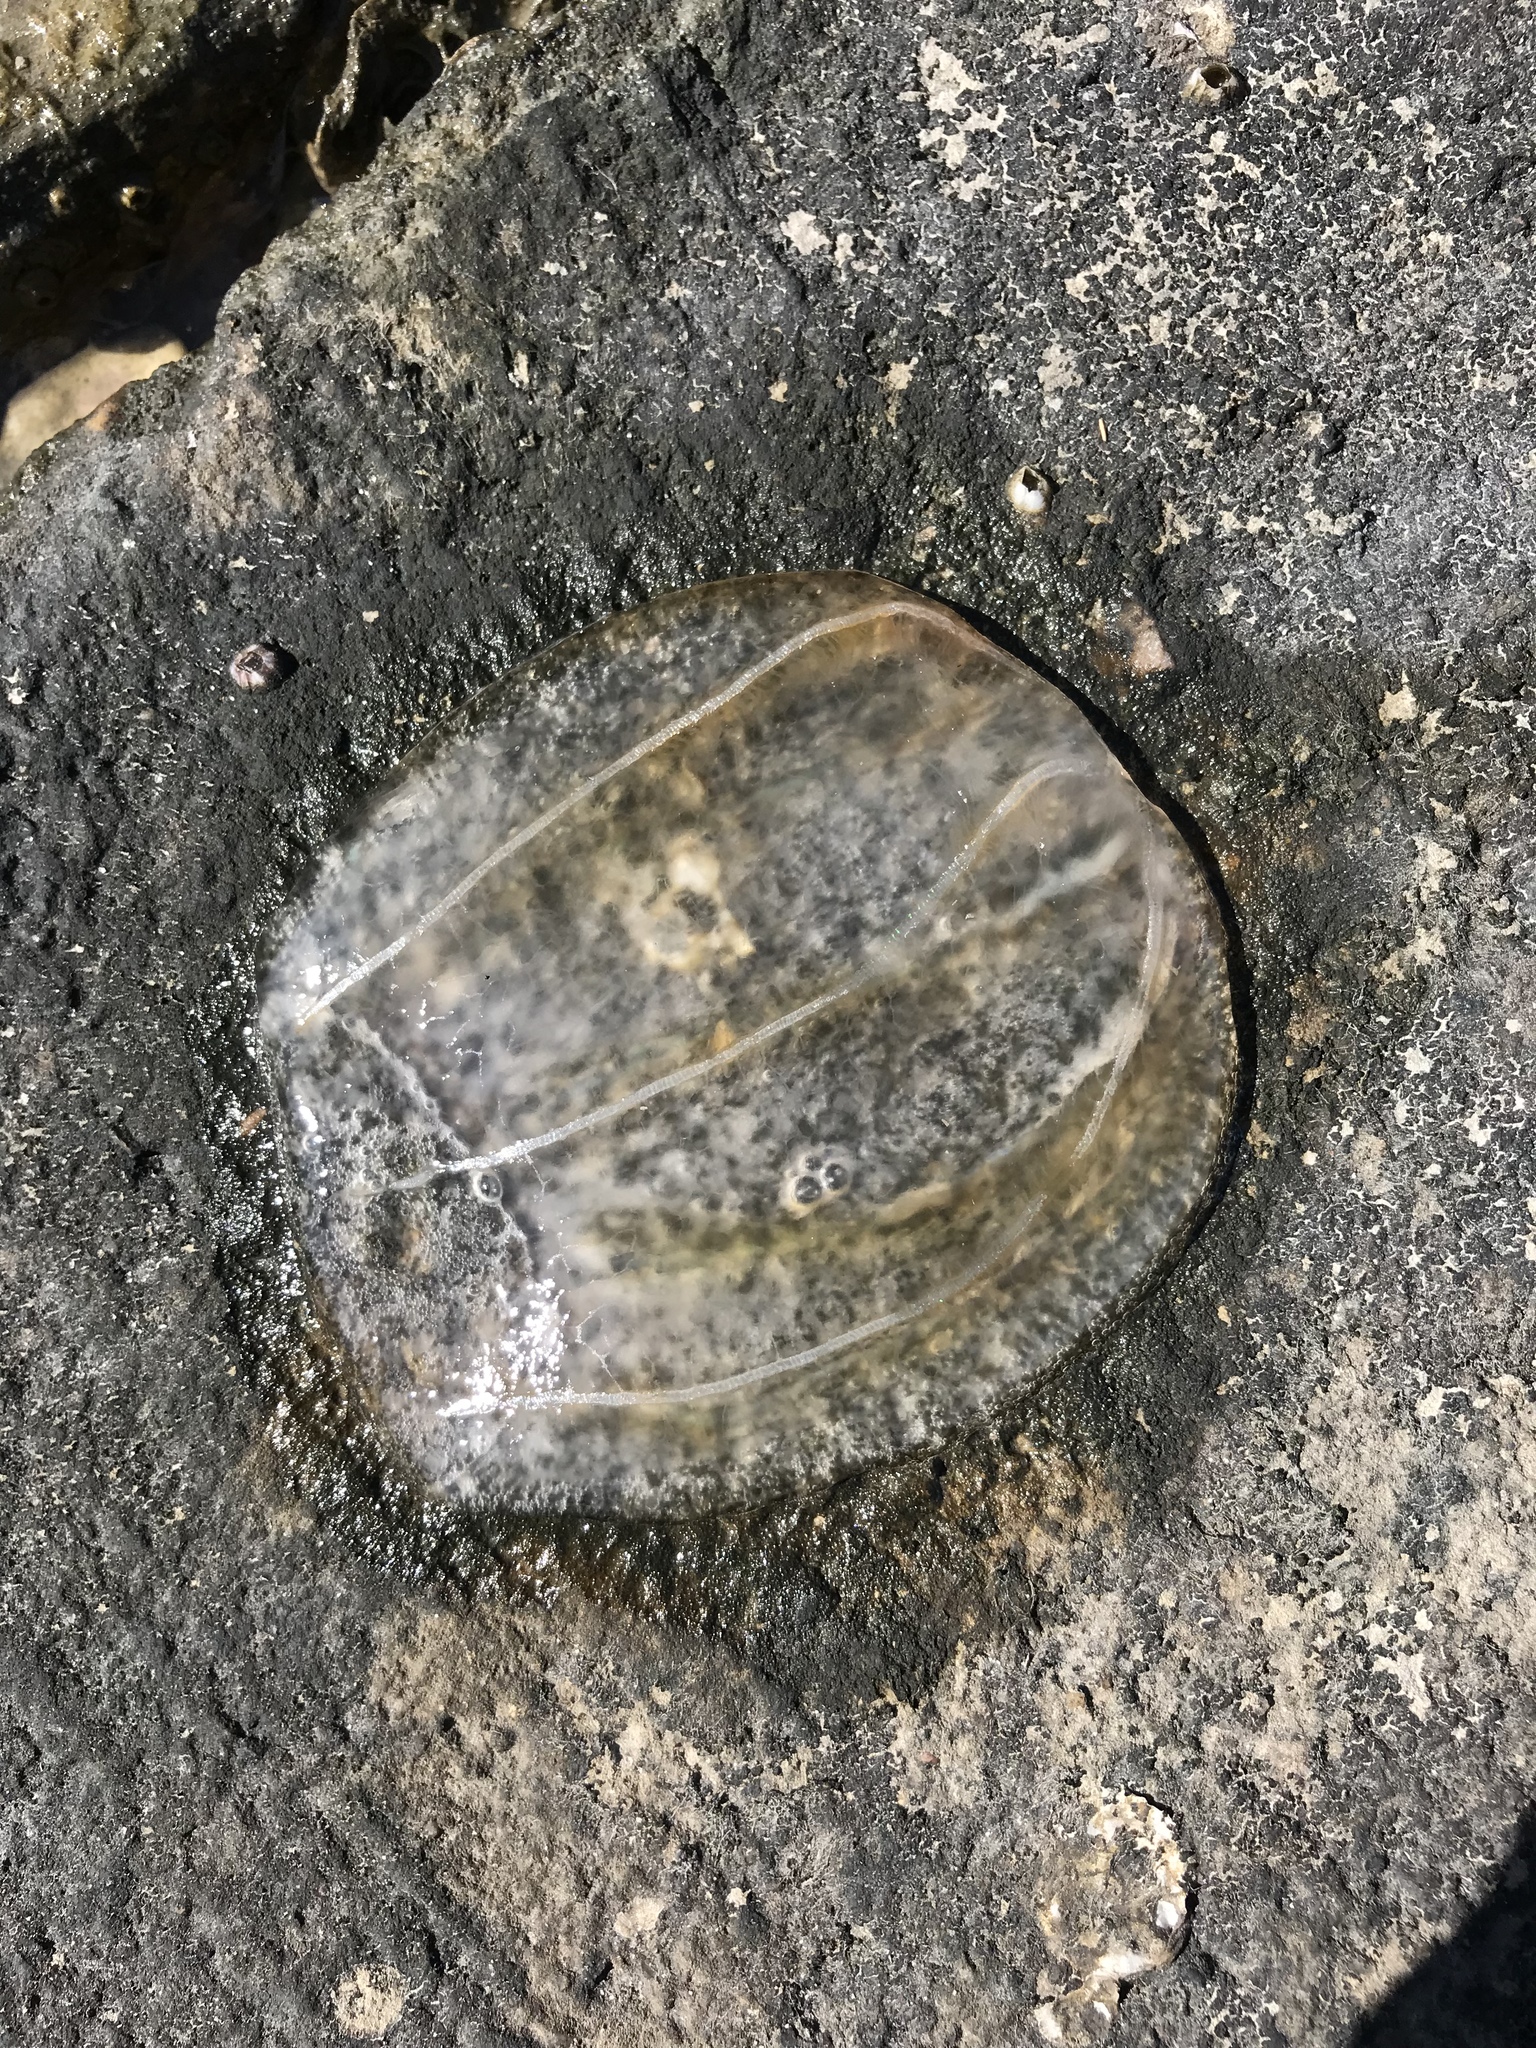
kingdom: Animalia
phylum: Ctenophora
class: Nuda
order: Beroida
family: Beroidae
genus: Beroe
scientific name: Beroe ovata
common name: Flattened helmet comb jelly
